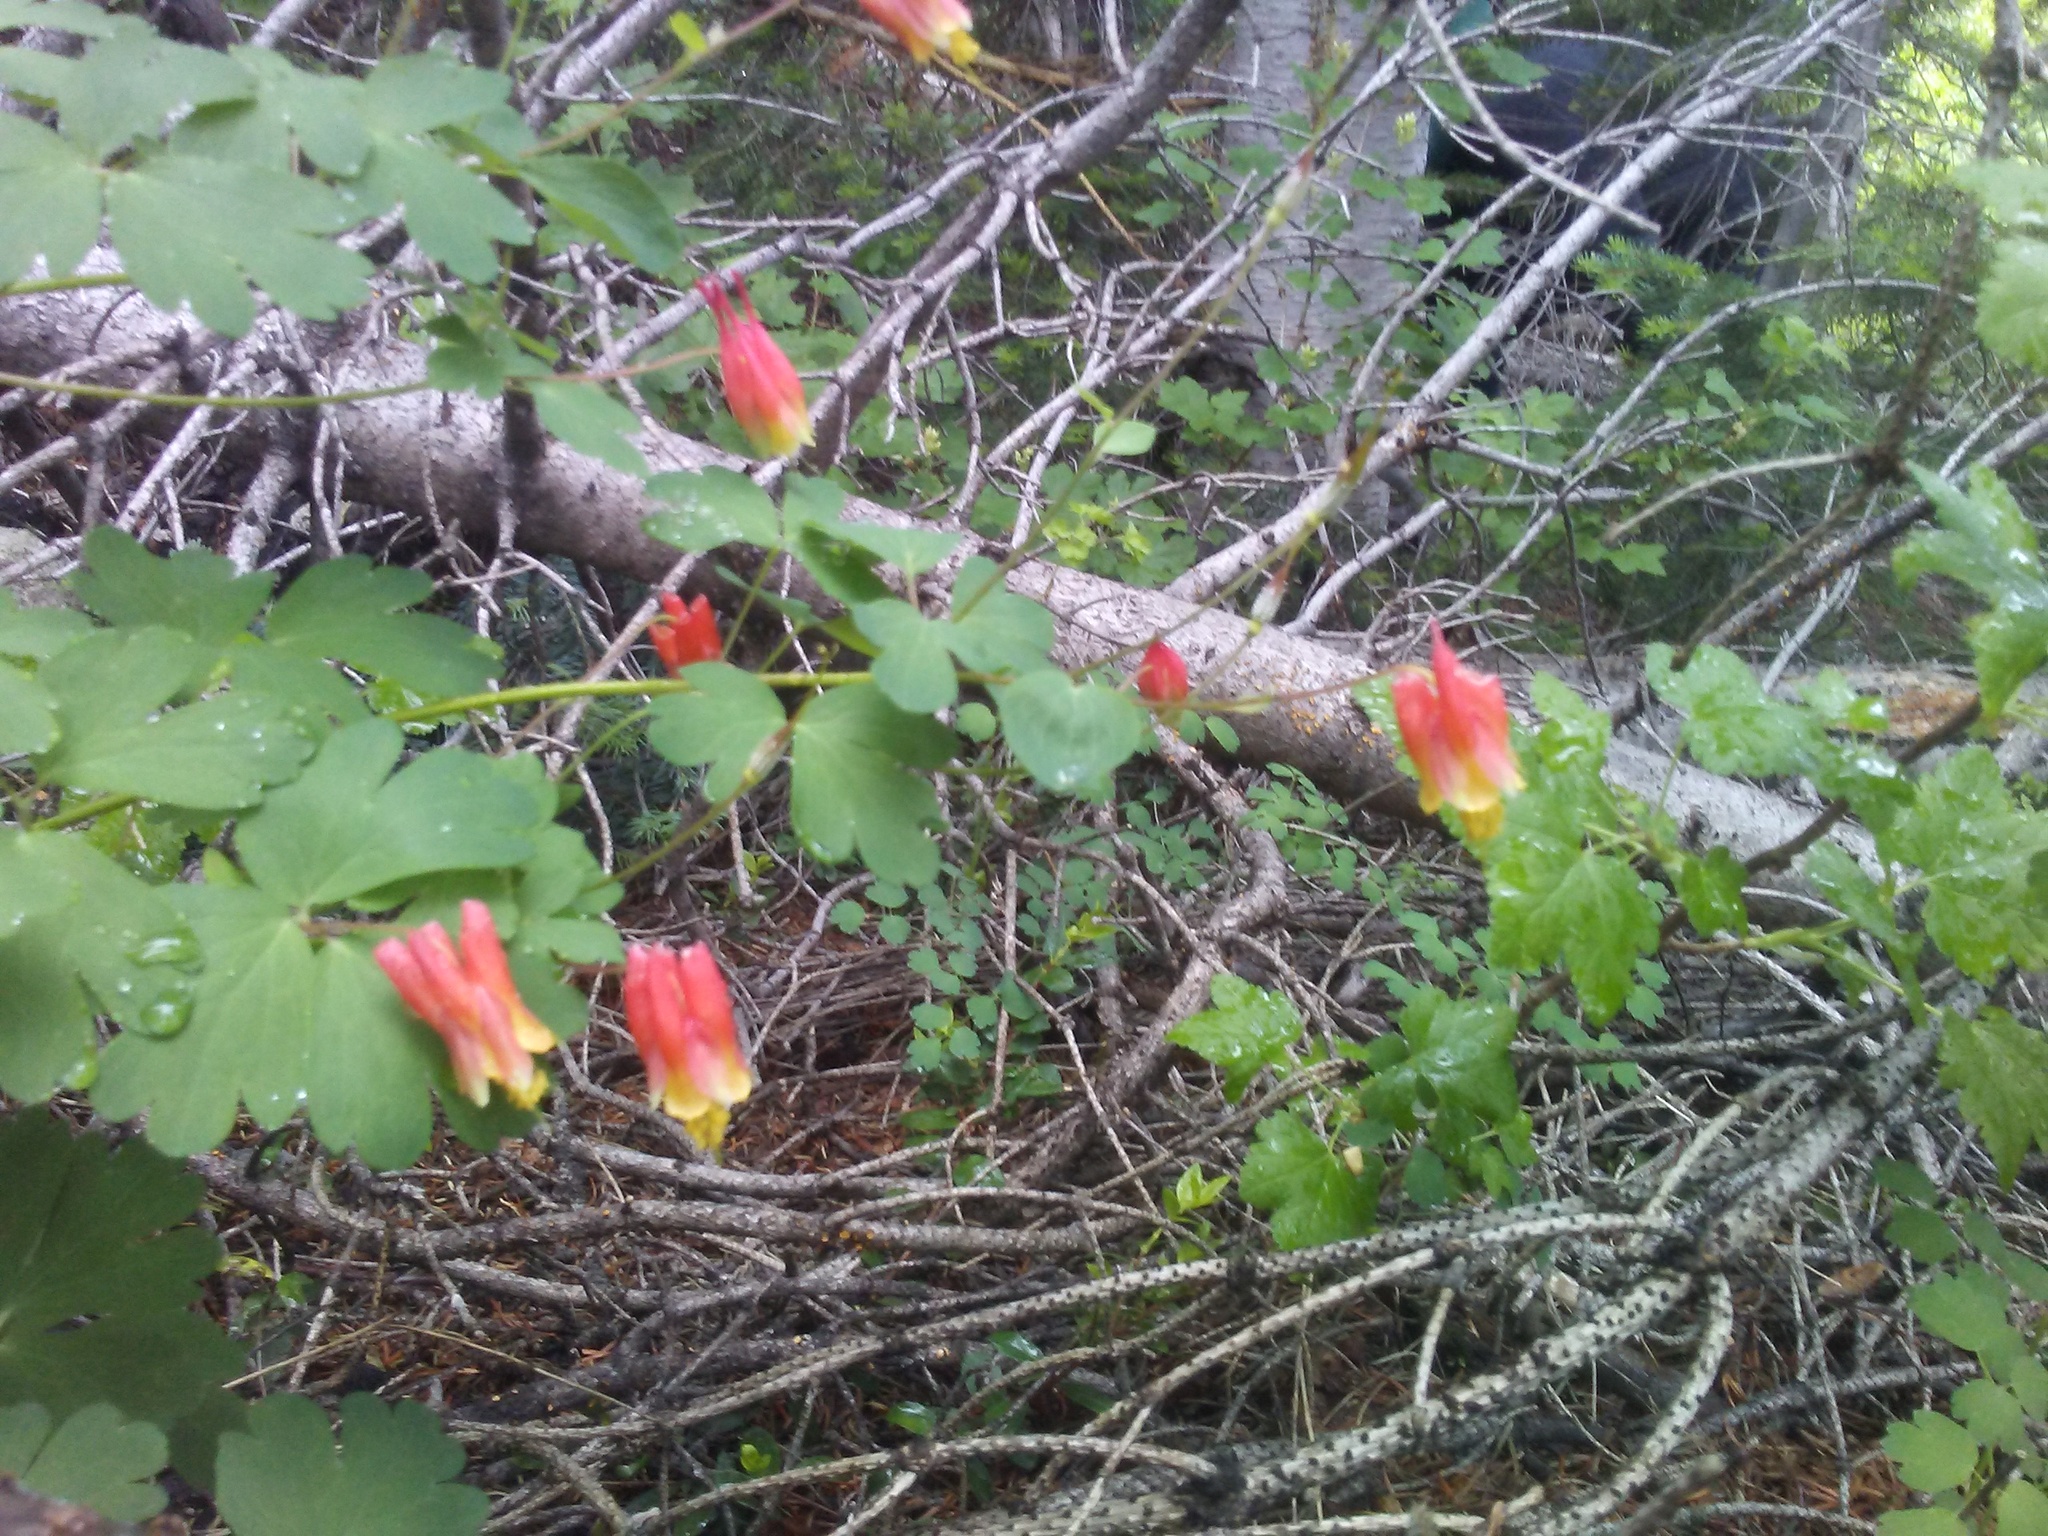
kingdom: Plantae
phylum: Tracheophyta
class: Magnoliopsida
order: Ranunculales
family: Ranunculaceae
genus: Aquilegia
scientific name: Aquilegia elegantula
